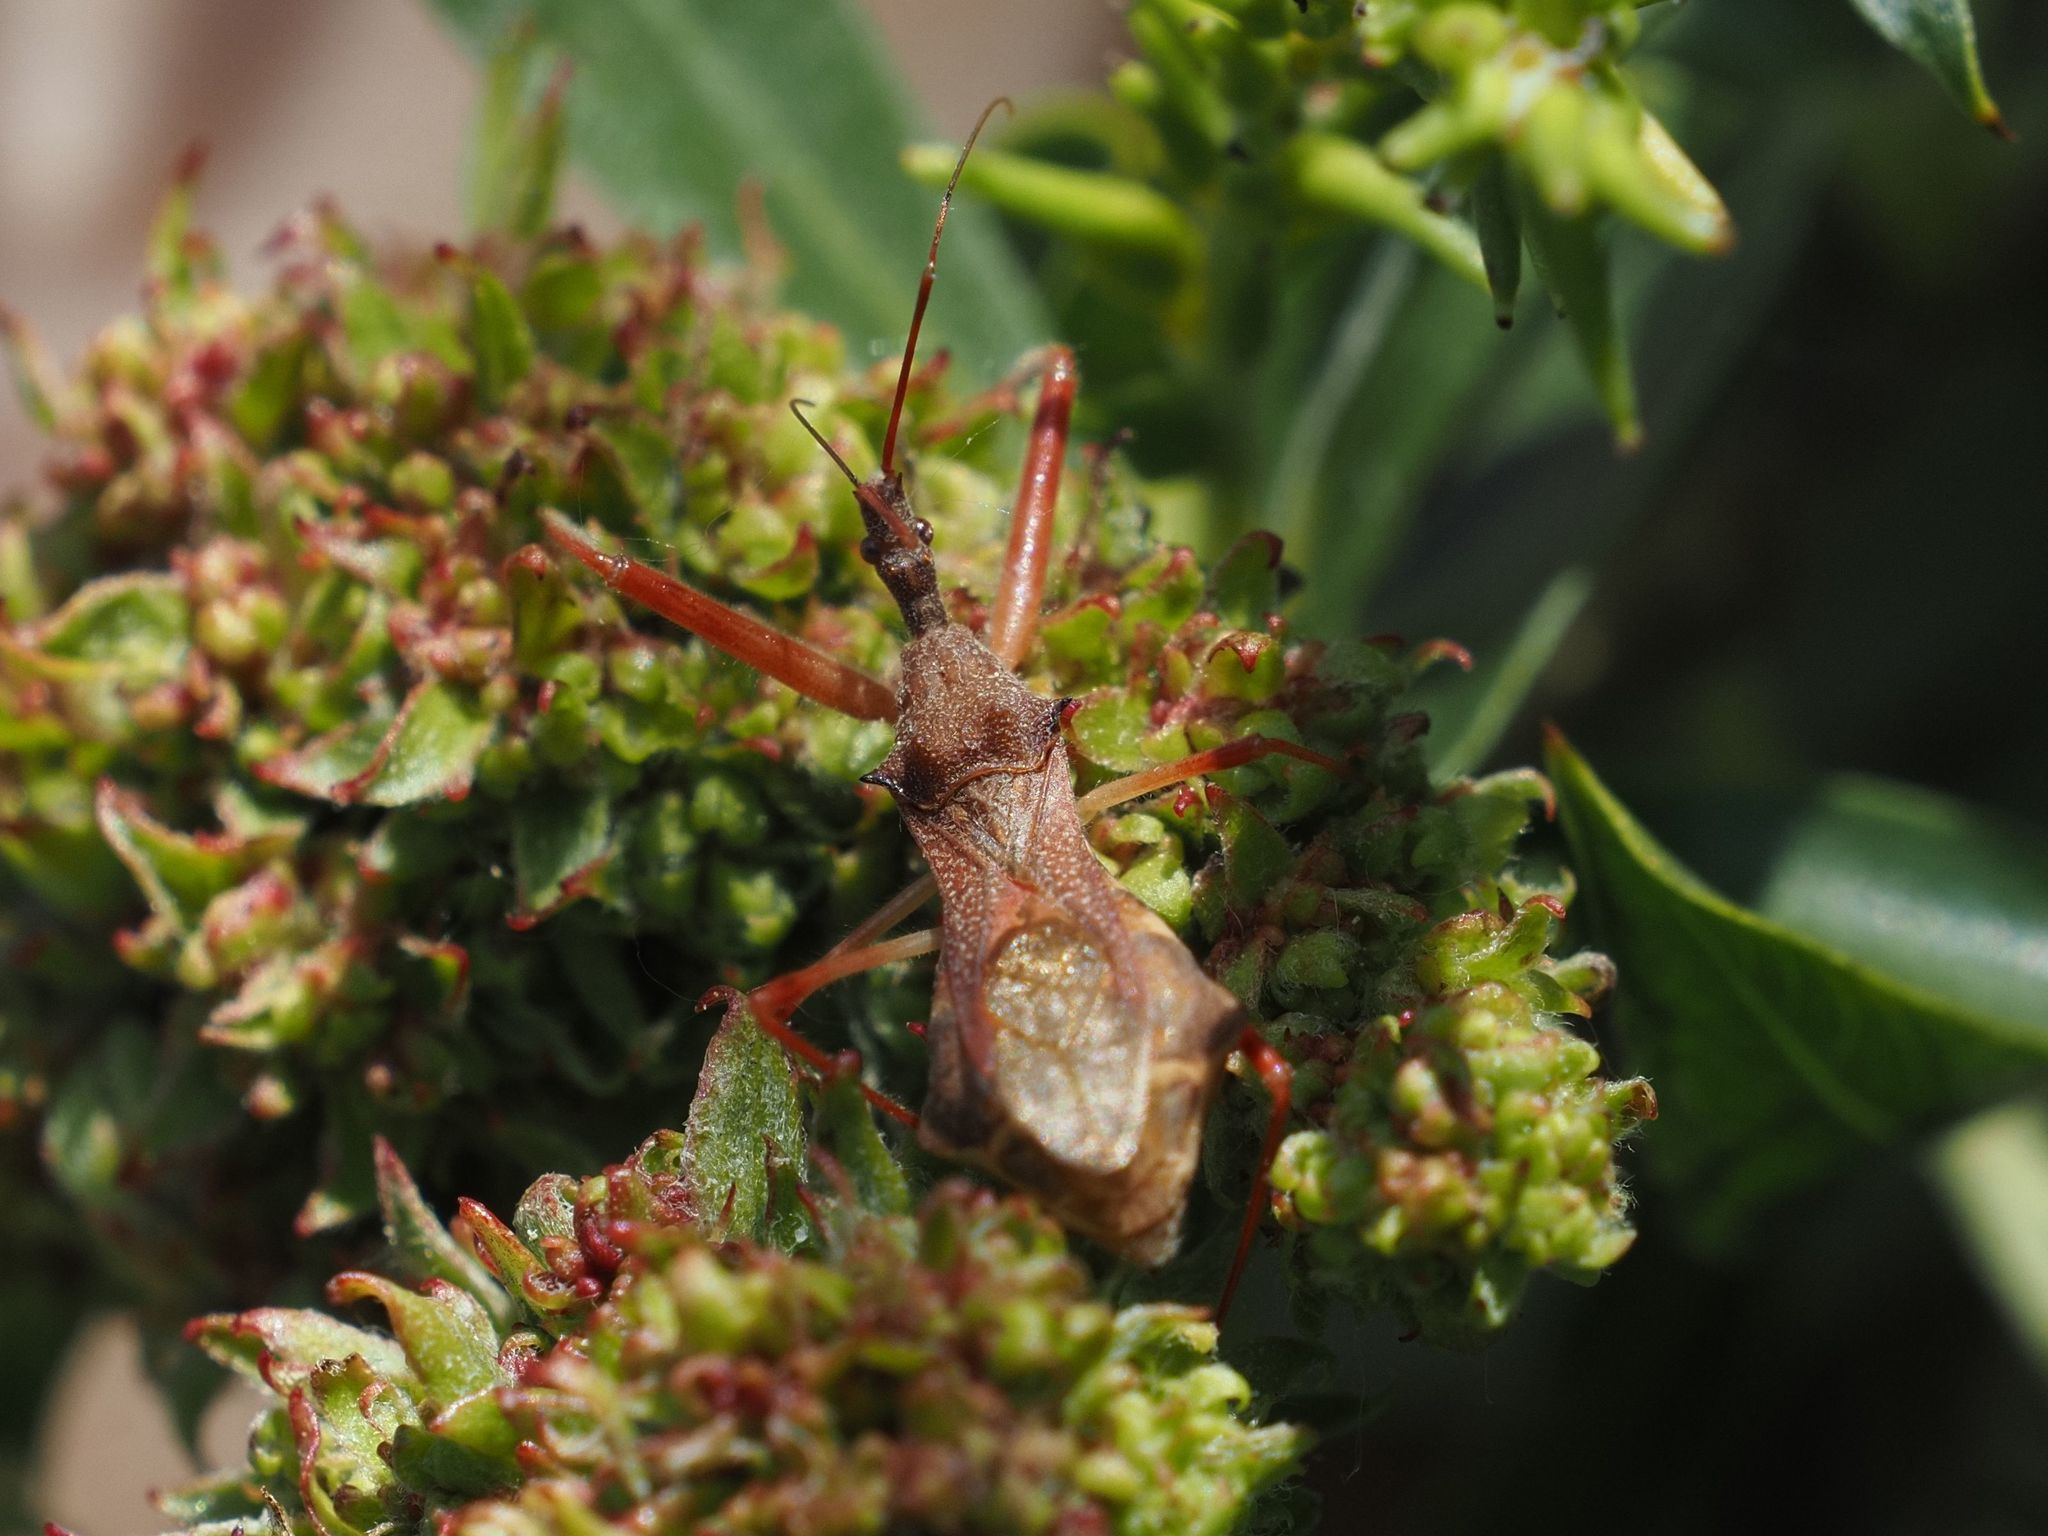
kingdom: Animalia
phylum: Arthropoda
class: Insecta
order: Hemiptera
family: Reduviidae
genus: Nagusta
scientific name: Nagusta goedelii
